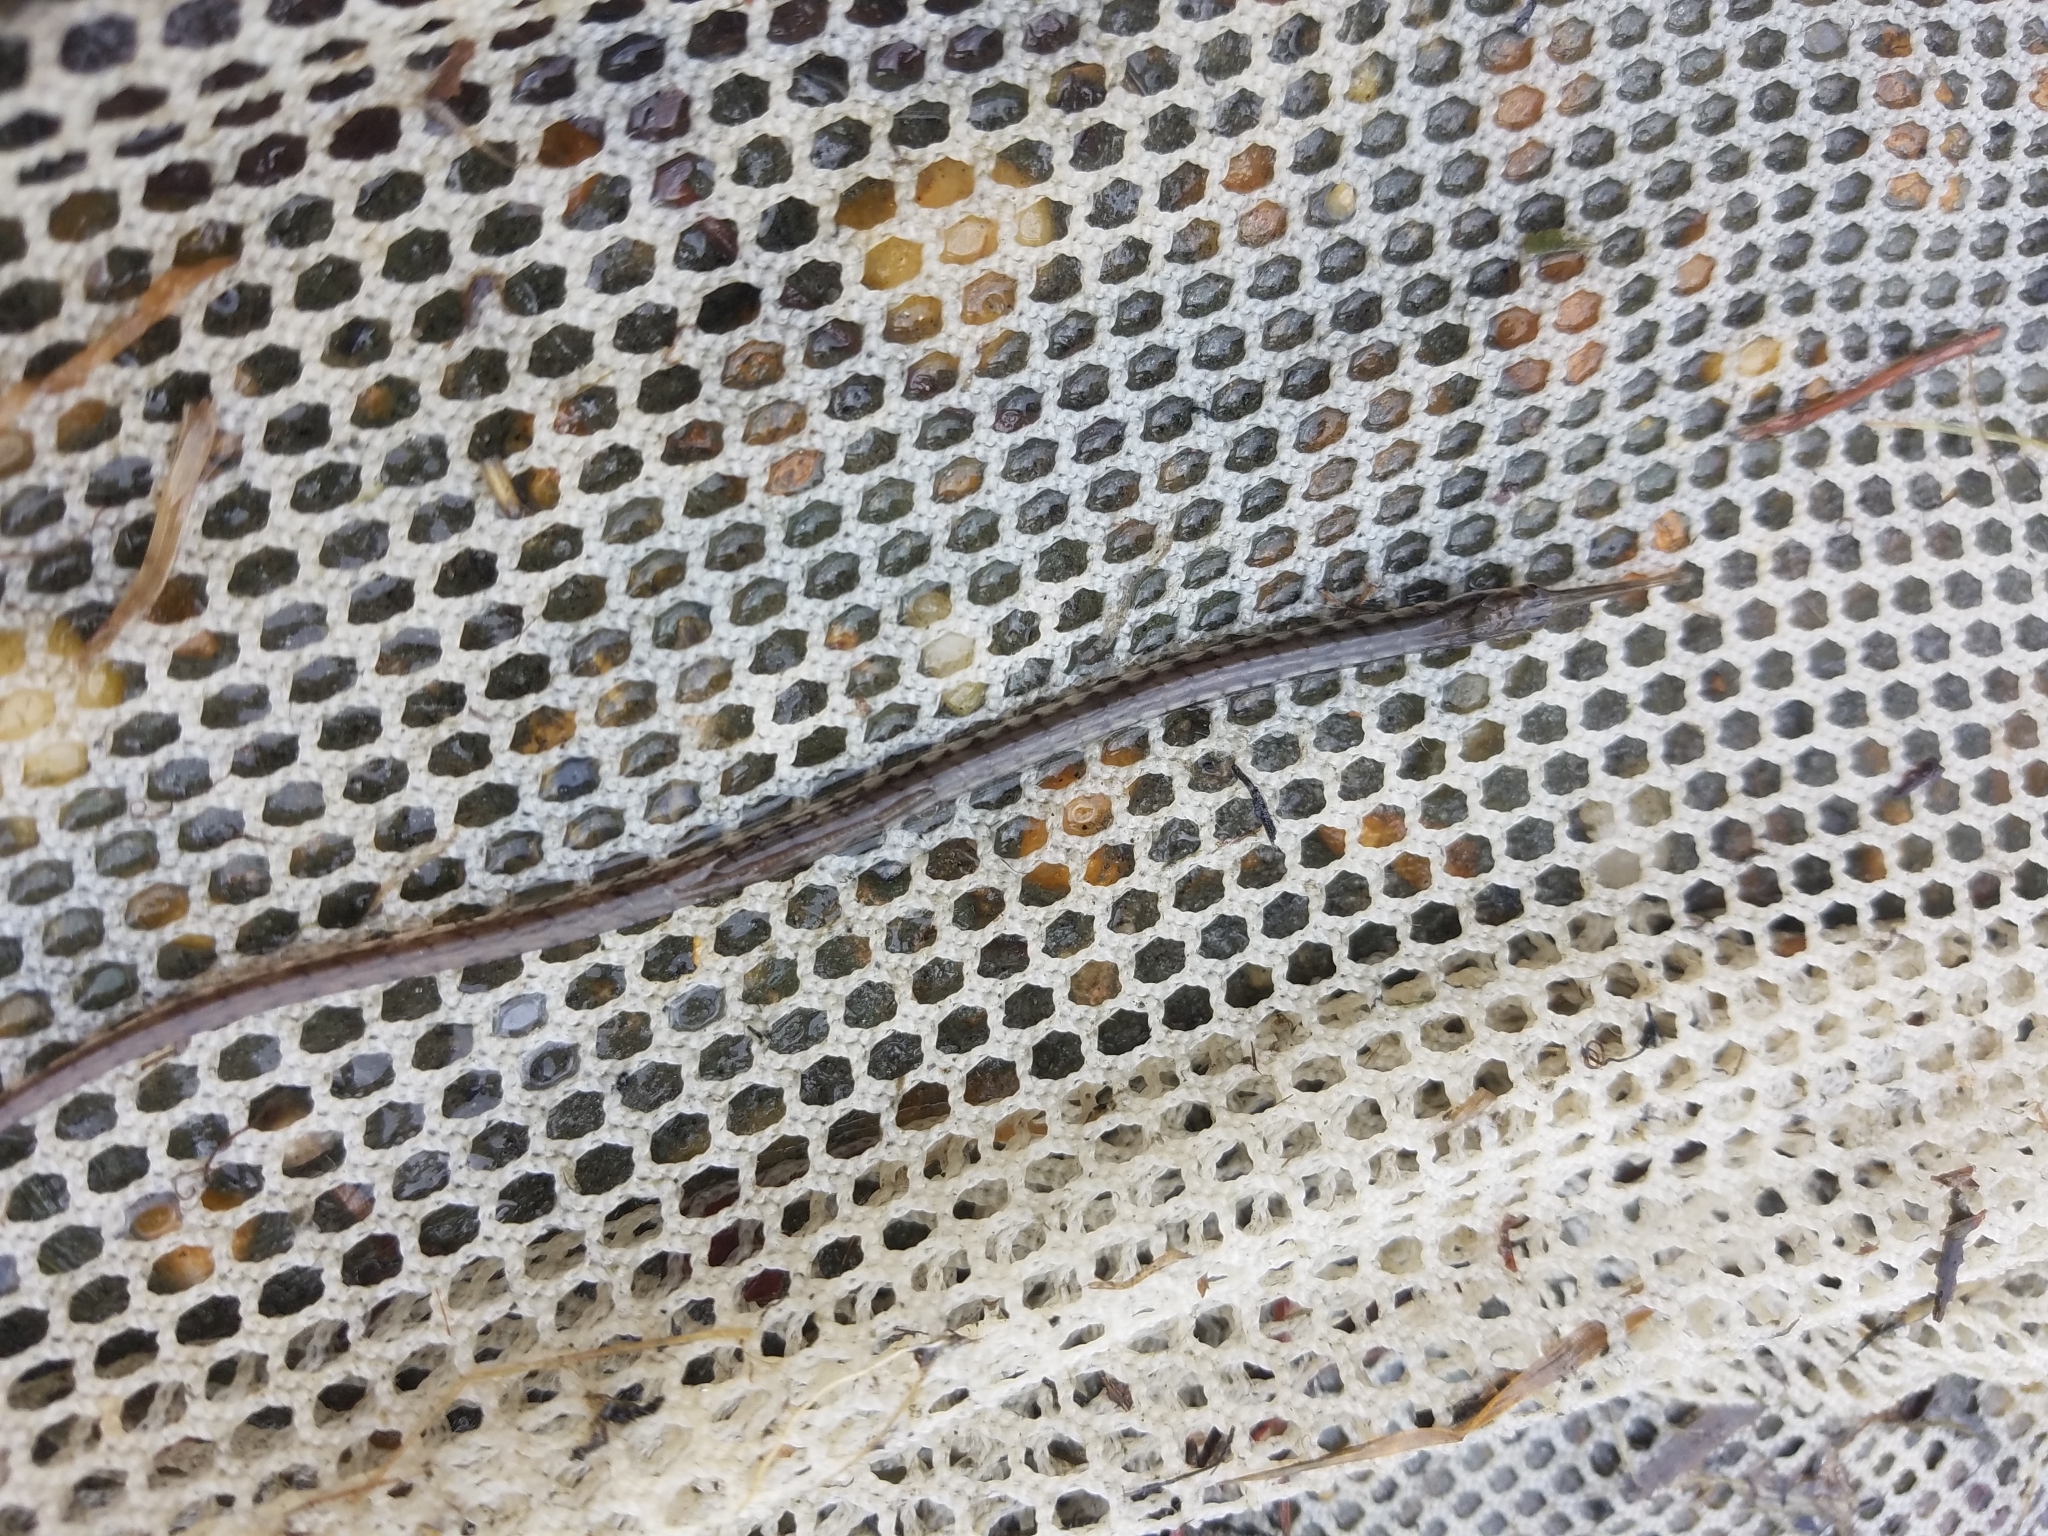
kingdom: Animalia
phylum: Chordata
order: Syngnathiformes
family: Syngnathidae
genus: Syngnathus
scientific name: Syngnathus fuscus
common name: Northern pipefish
